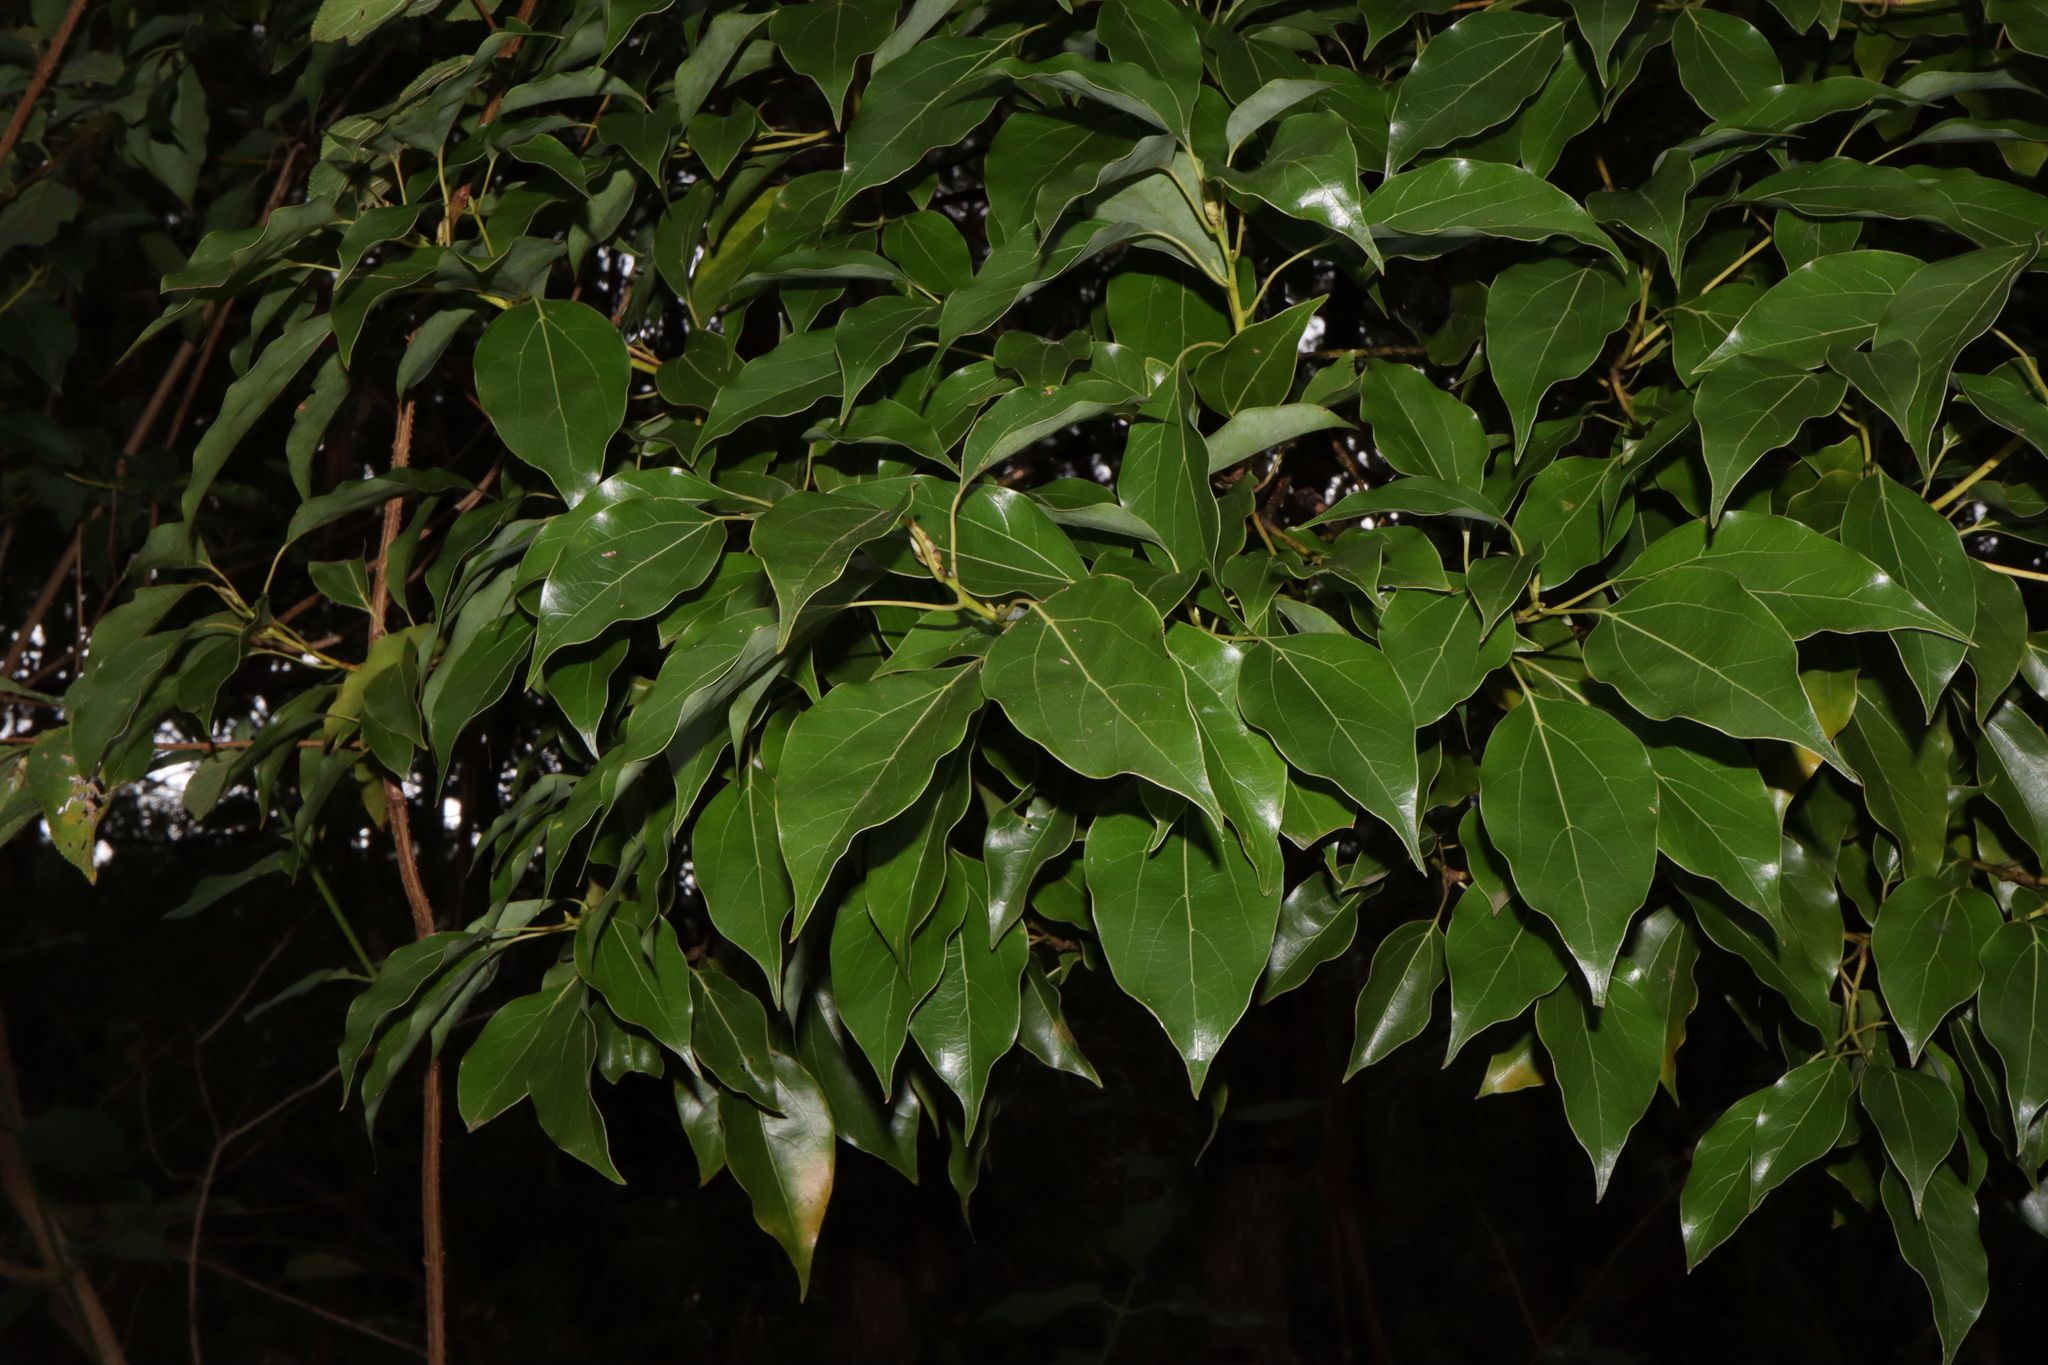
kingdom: Plantae
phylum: Tracheophyta
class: Magnoliopsida
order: Laurales
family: Lauraceae
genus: Cinnamomum
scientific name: Cinnamomum camphora
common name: Camphortree
